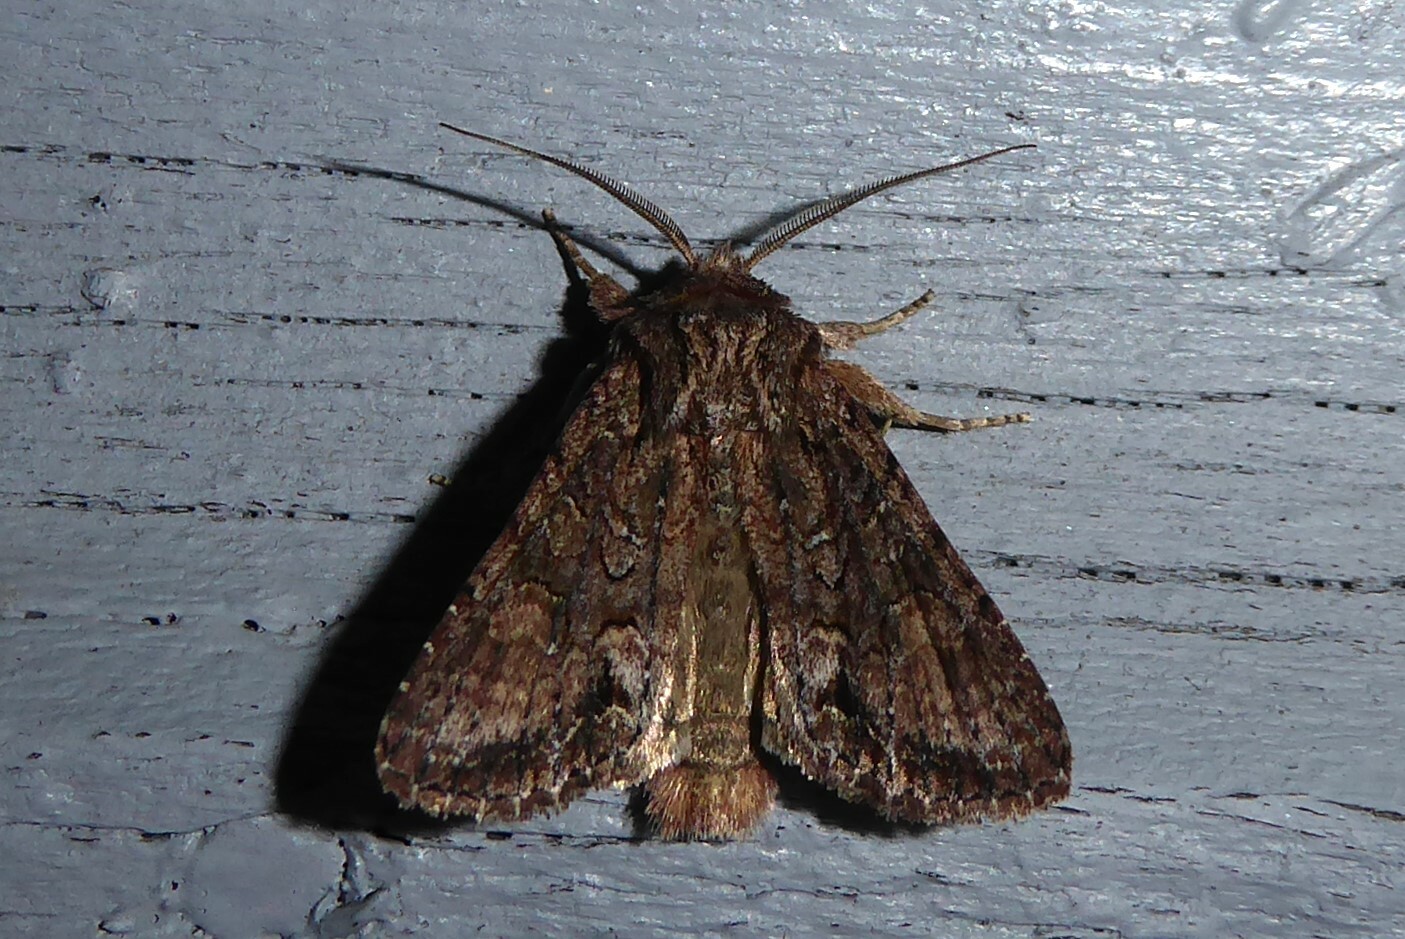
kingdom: Animalia
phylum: Arthropoda
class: Insecta
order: Lepidoptera
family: Noctuidae
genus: Ichneutica
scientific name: Ichneutica mutans
